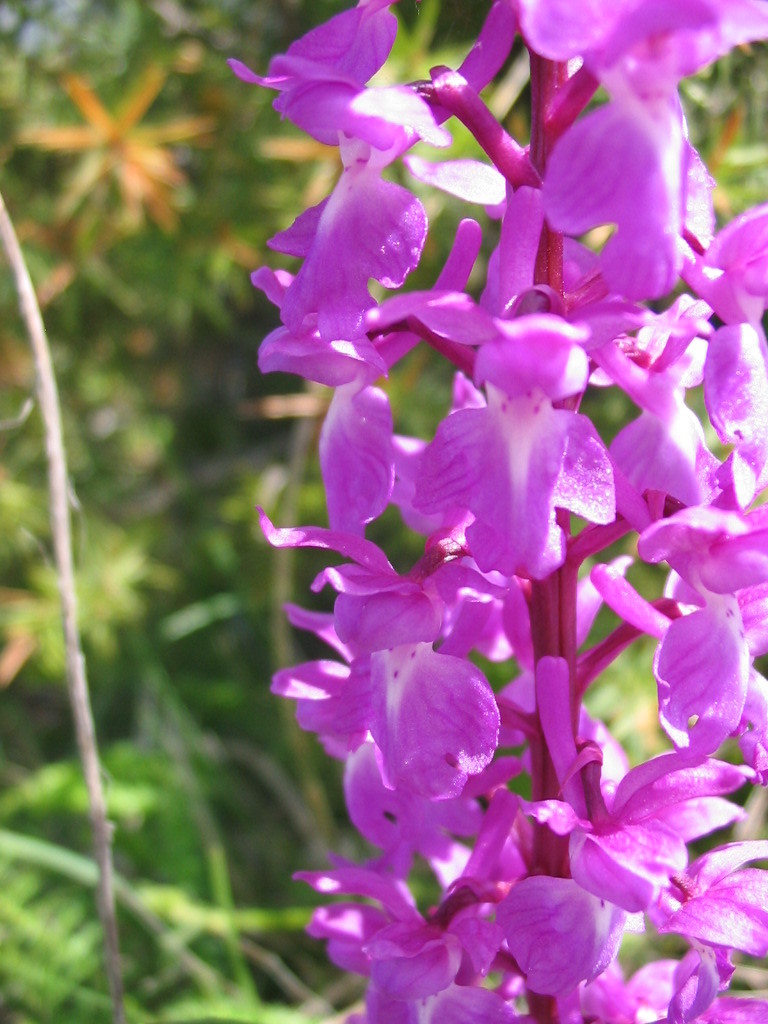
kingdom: Plantae
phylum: Tracheophyta
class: Liliopsida
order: Asparagales
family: Orchidaceae
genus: Orchis
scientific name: Orchis mascula
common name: Early-purple orchid
